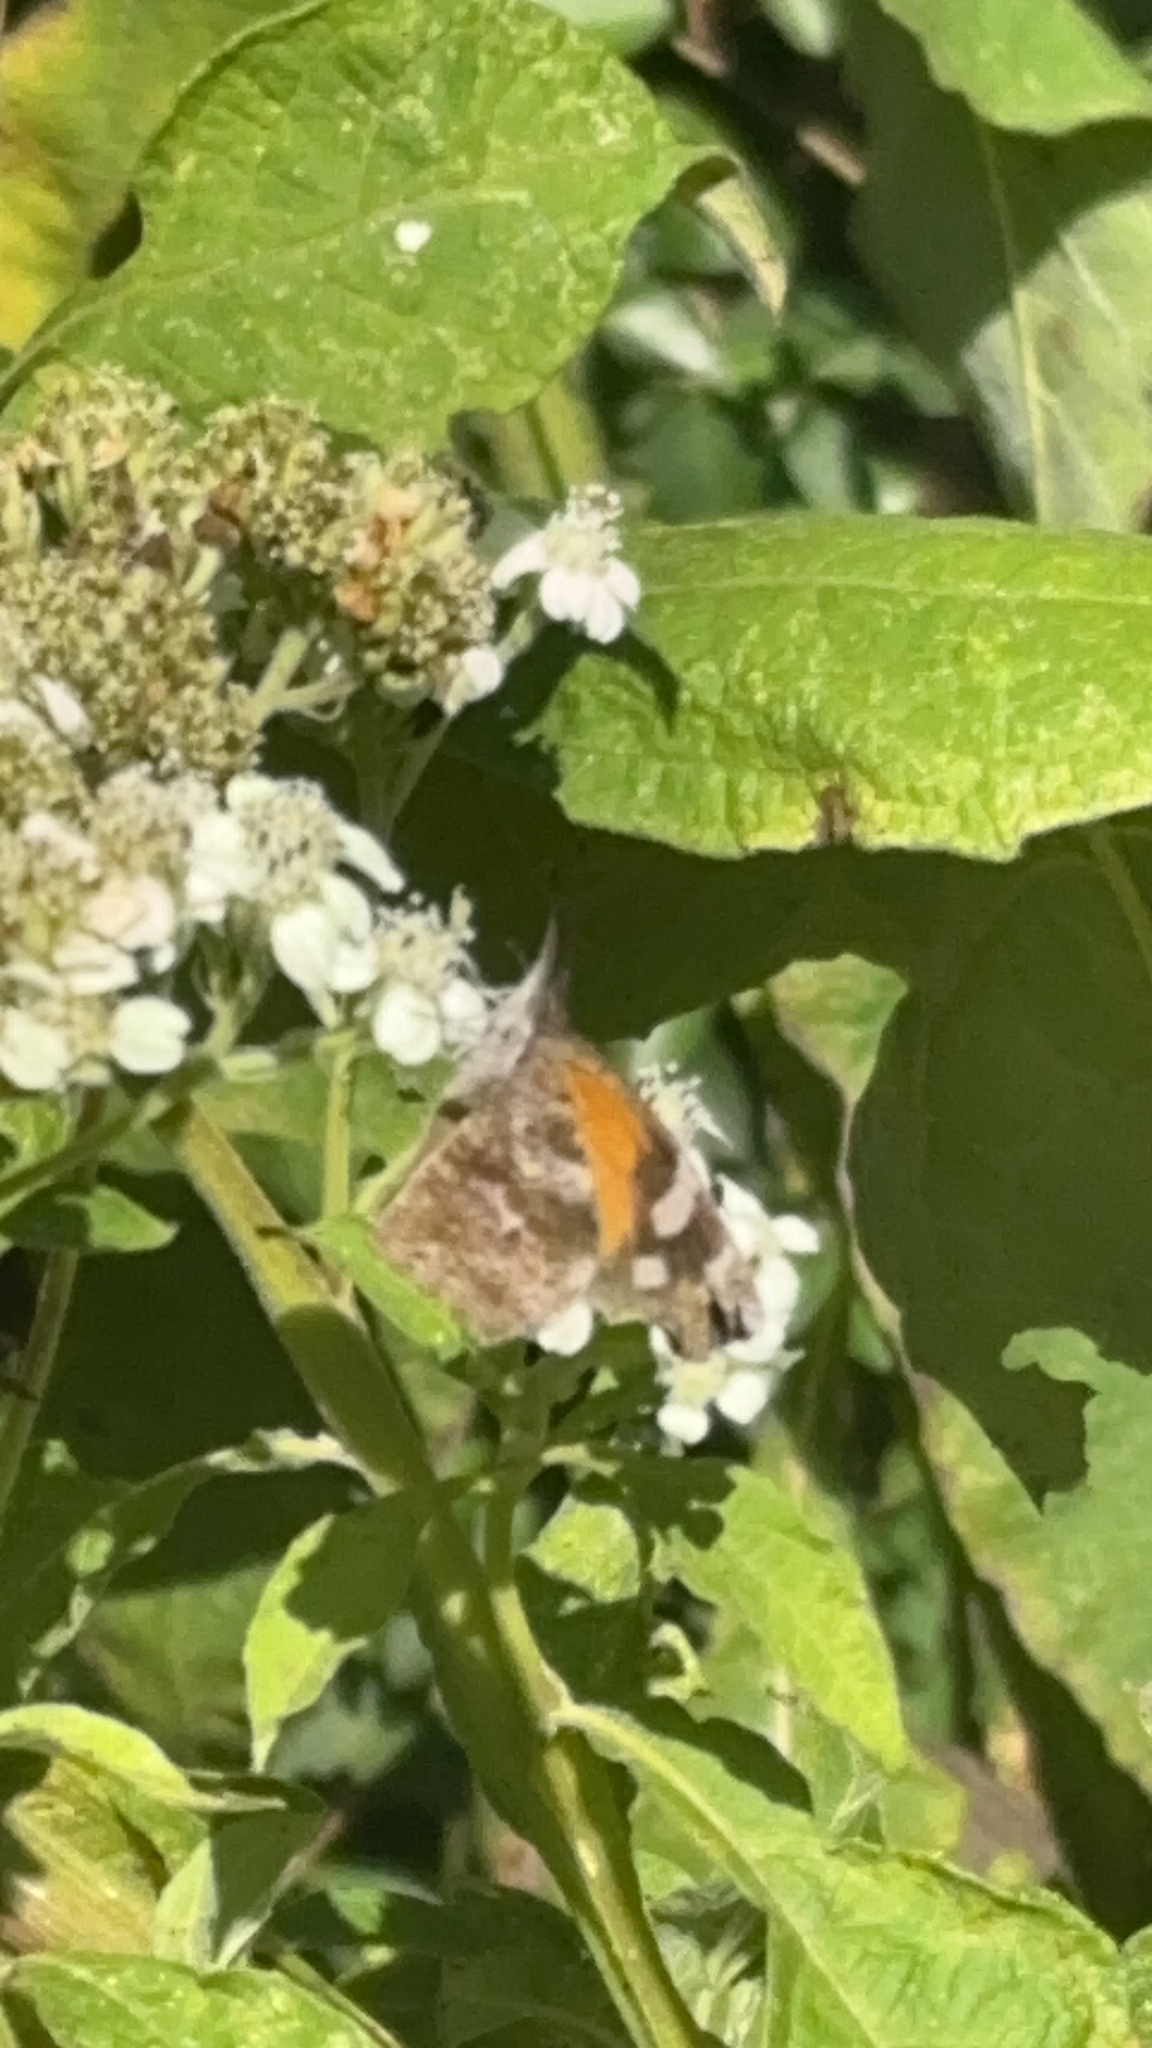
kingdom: Animalia
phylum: Arthropoda
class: Insecta
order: Lepidoptera
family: Nymphalidae
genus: Libytheana
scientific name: Libytheana carinenta
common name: American snout
